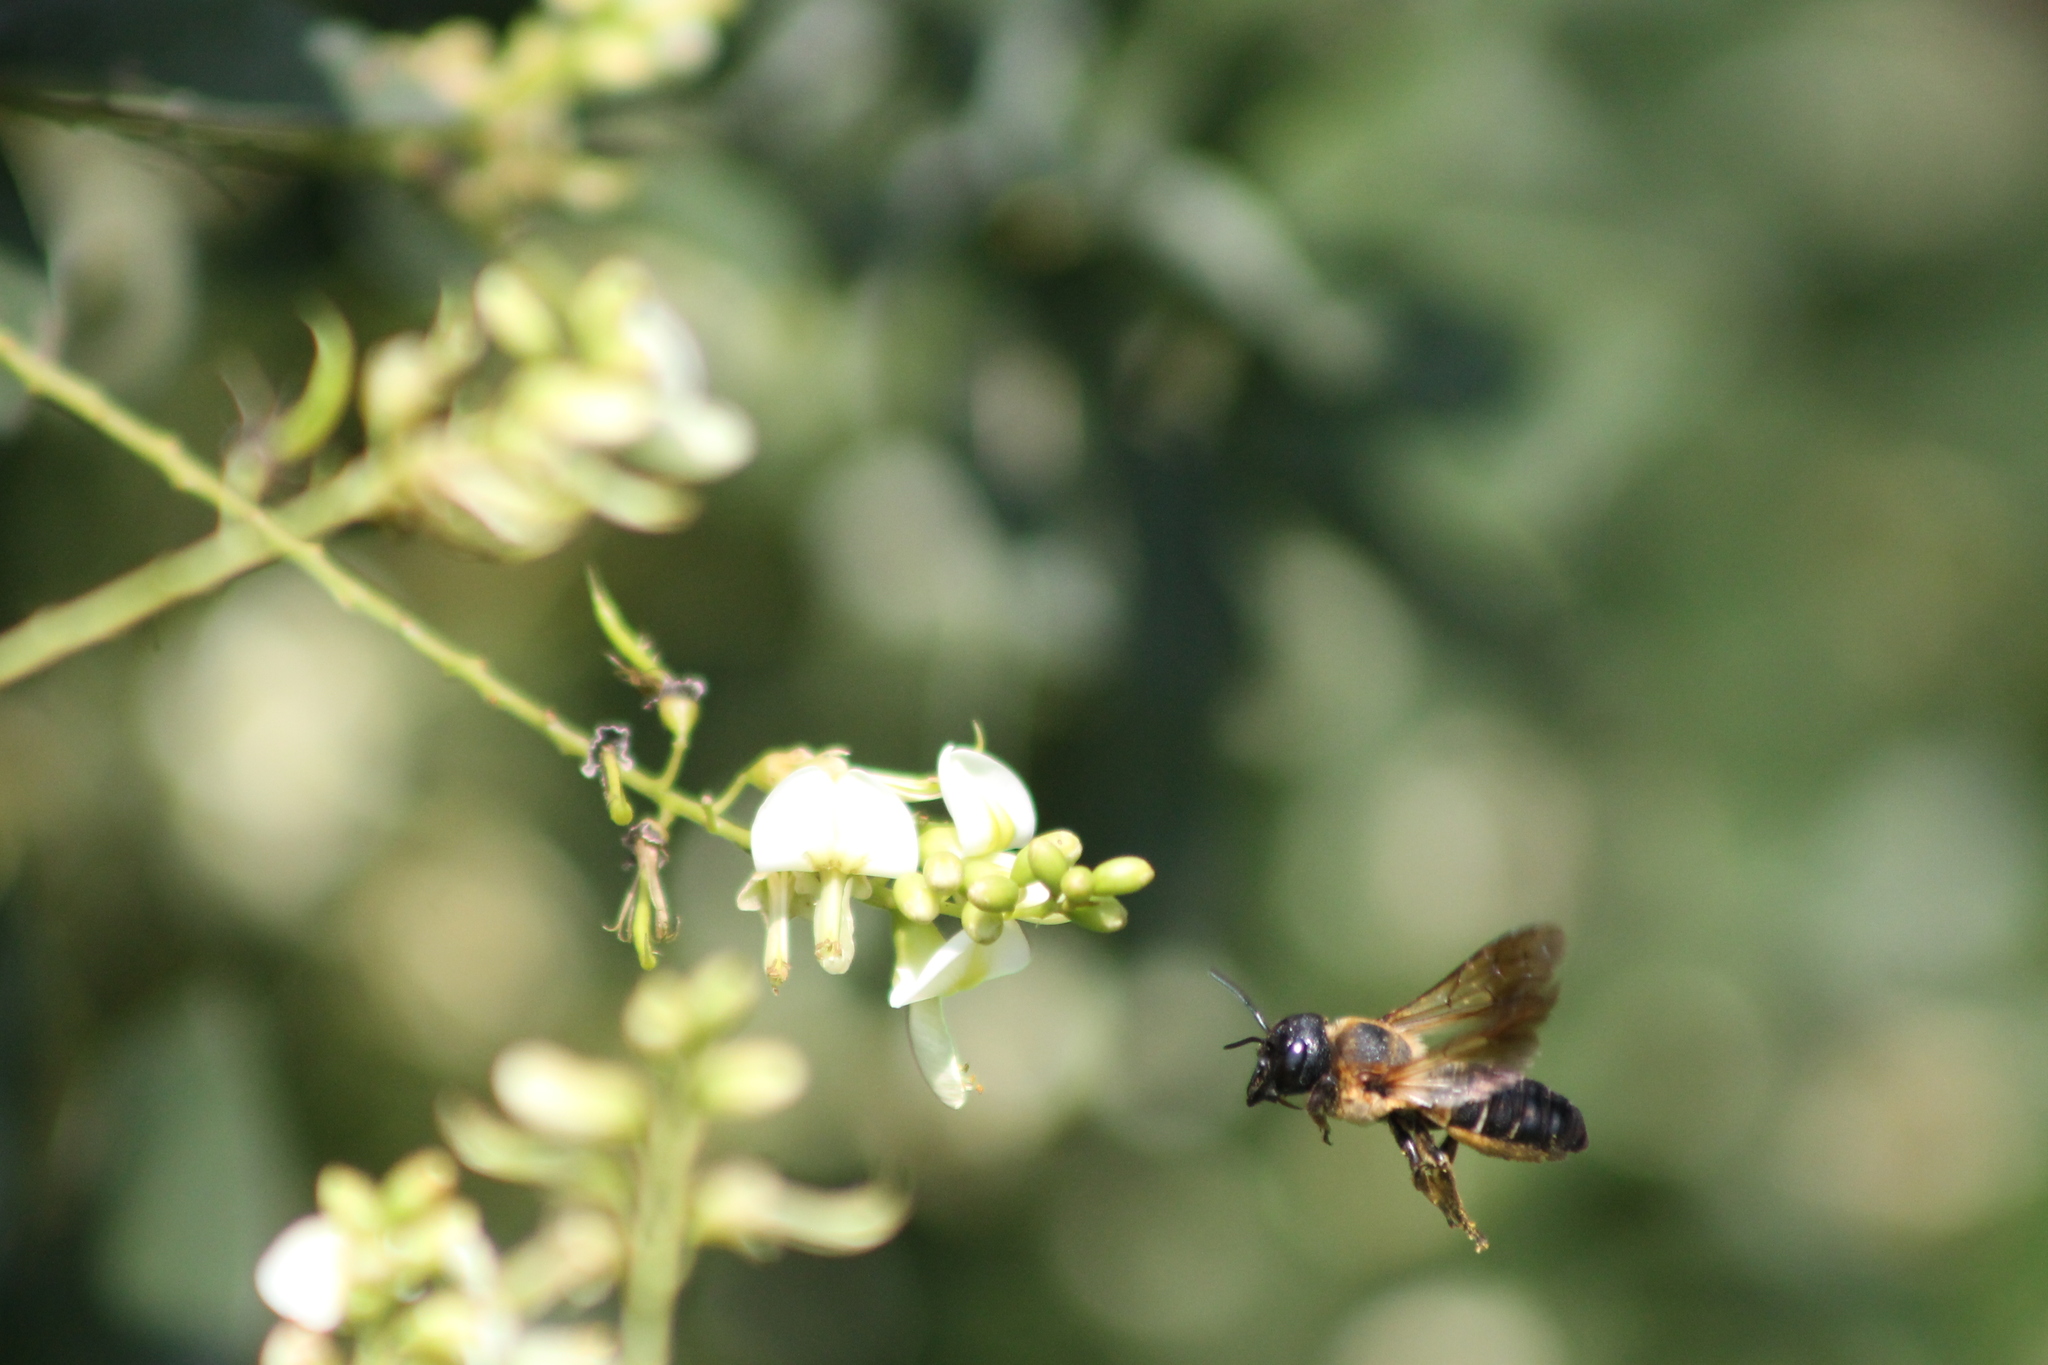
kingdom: Animalia
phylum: Arthropoda
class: Insecta
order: Hymenoptera
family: Megachilidae
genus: Megachile
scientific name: Megachile sculpturalis
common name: Sculptured resin bee
